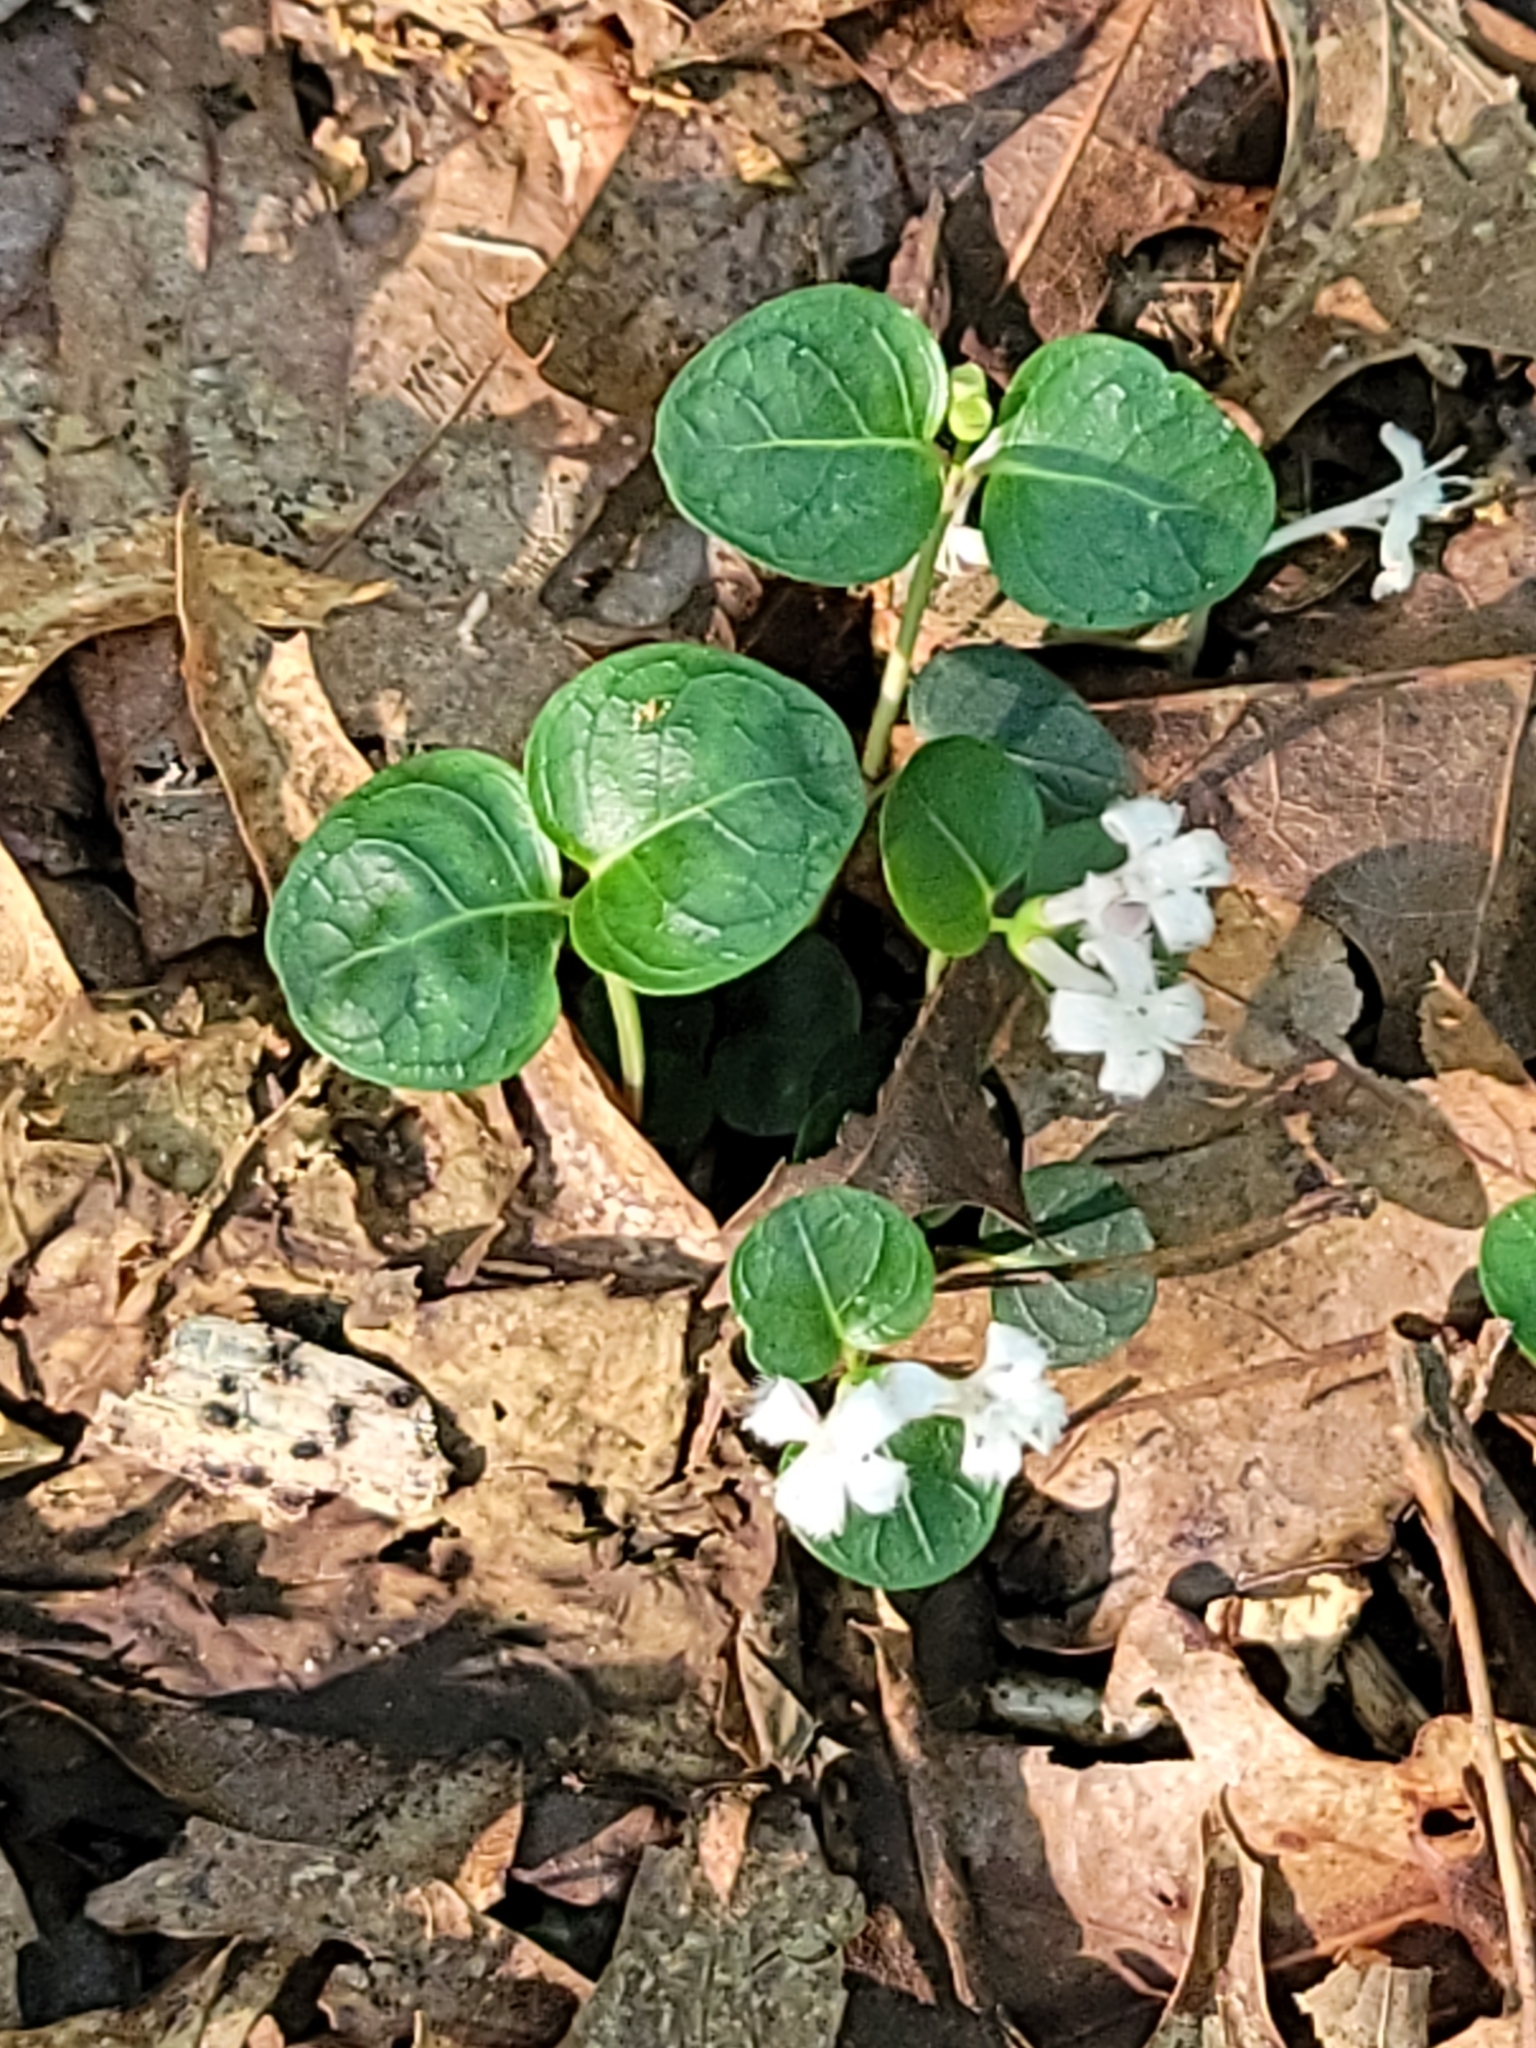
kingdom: Plantae
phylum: Tracheophyta
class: Magnoliopsida
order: Gentianales
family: Rubiaceae
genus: Mitchella
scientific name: Mitchella repens
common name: Partridge-berry
